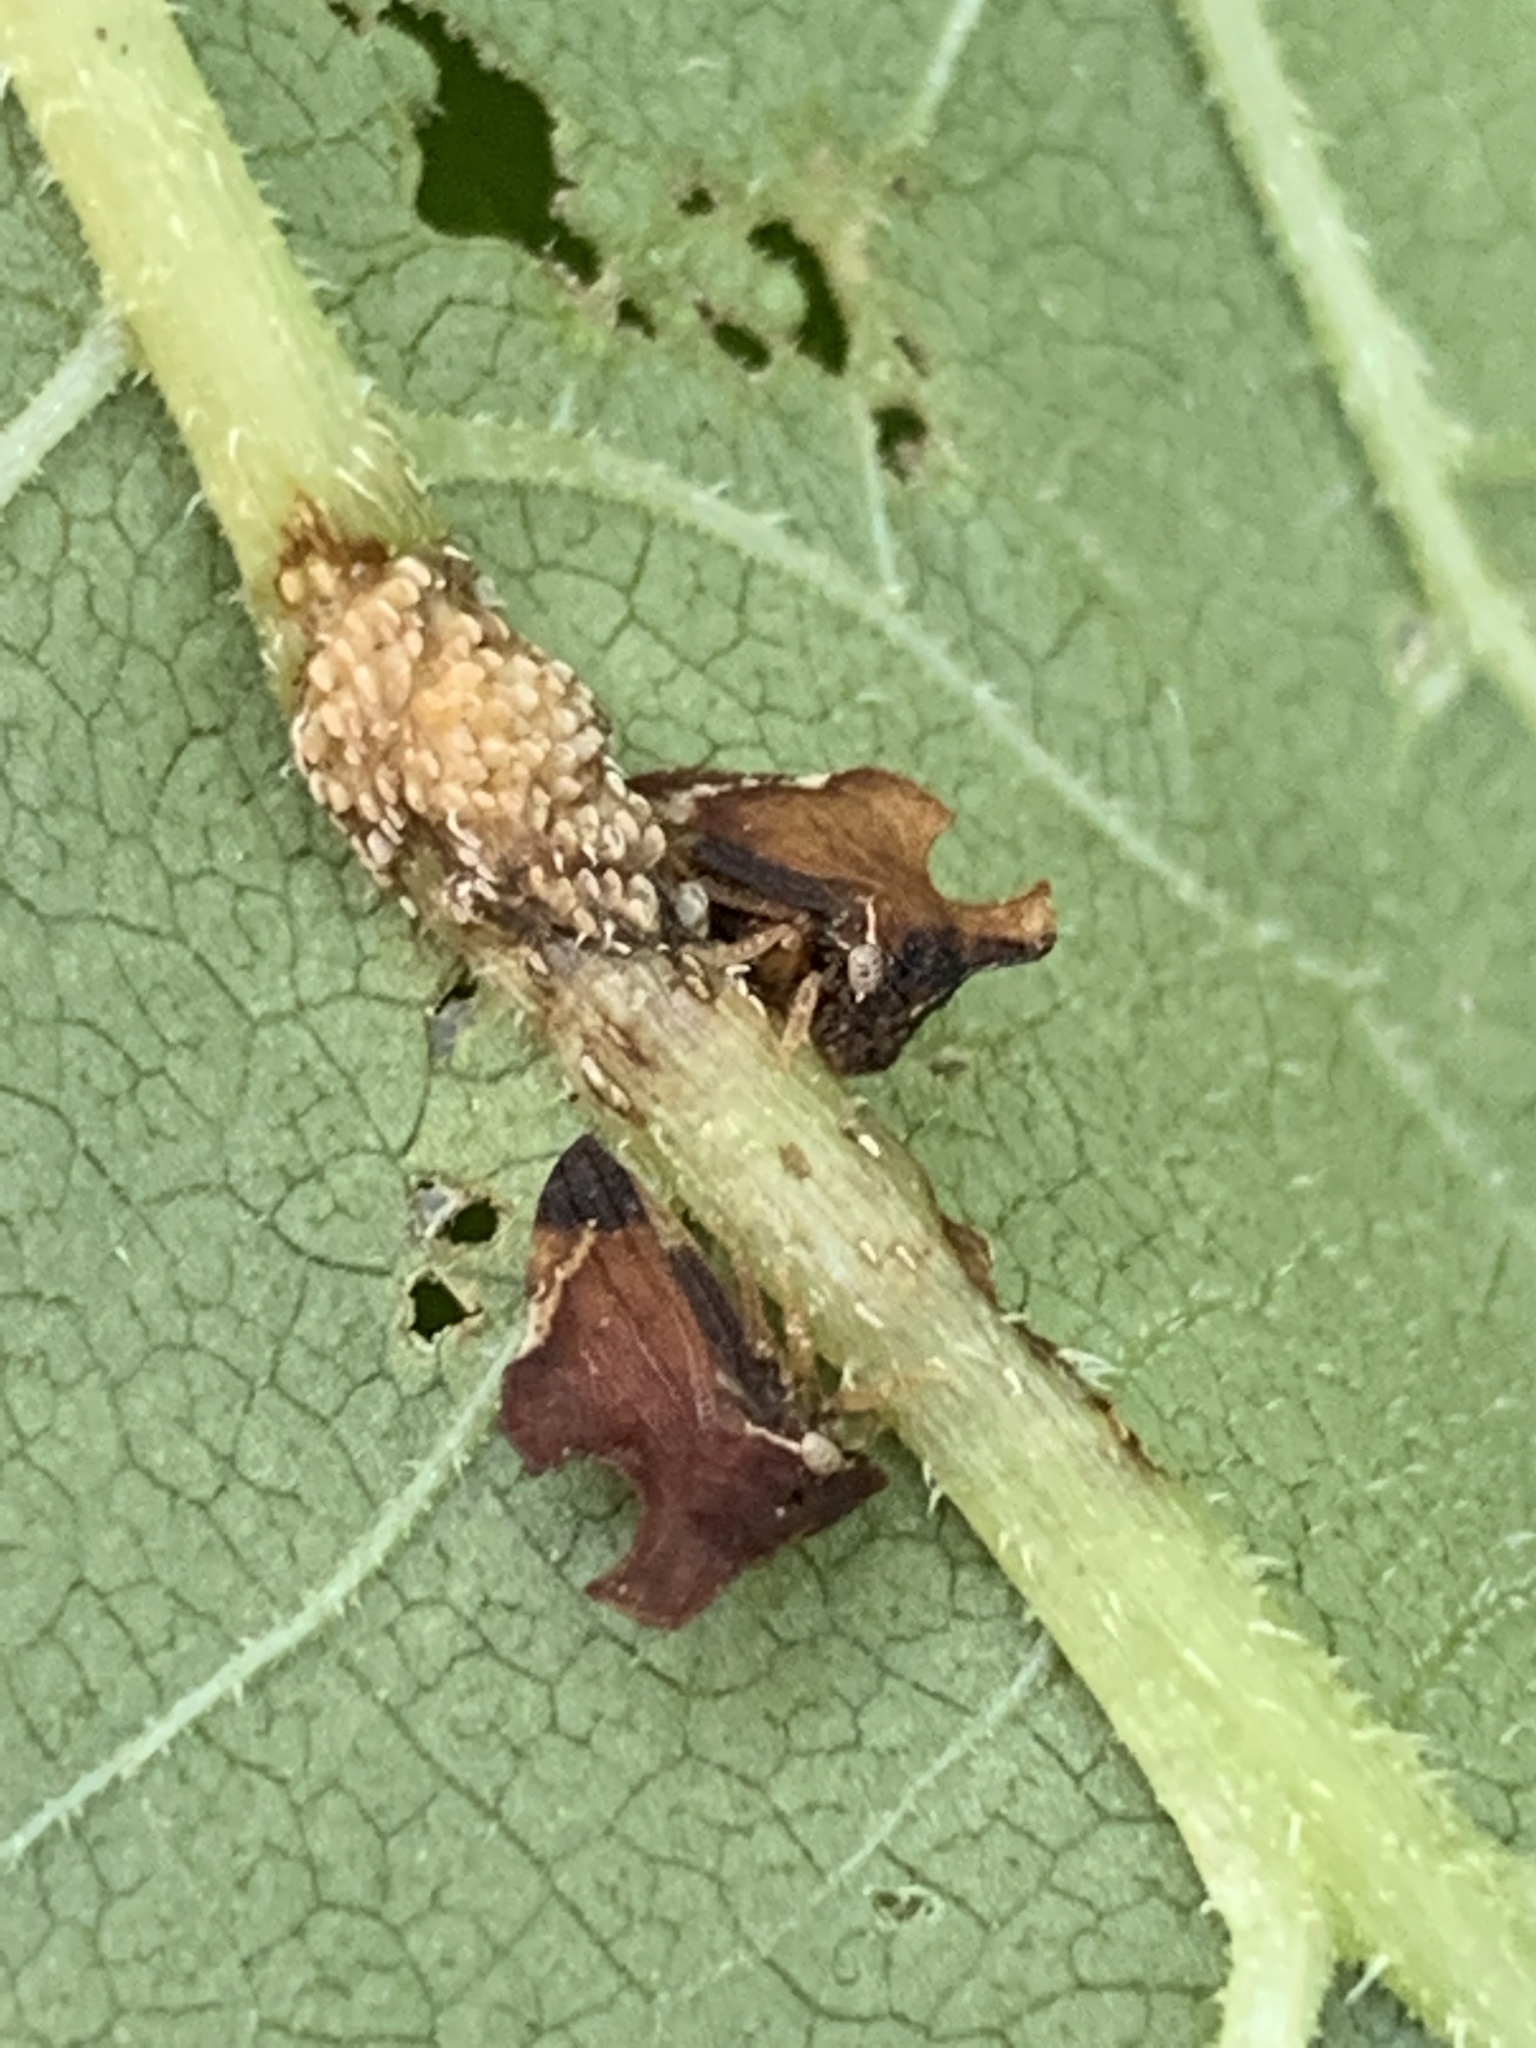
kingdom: Animalia
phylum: Arthropoda
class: Insecta
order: Hemiptera
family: Membracidae
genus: Entylia
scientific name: Entylia carinata
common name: Keeled treehopper
